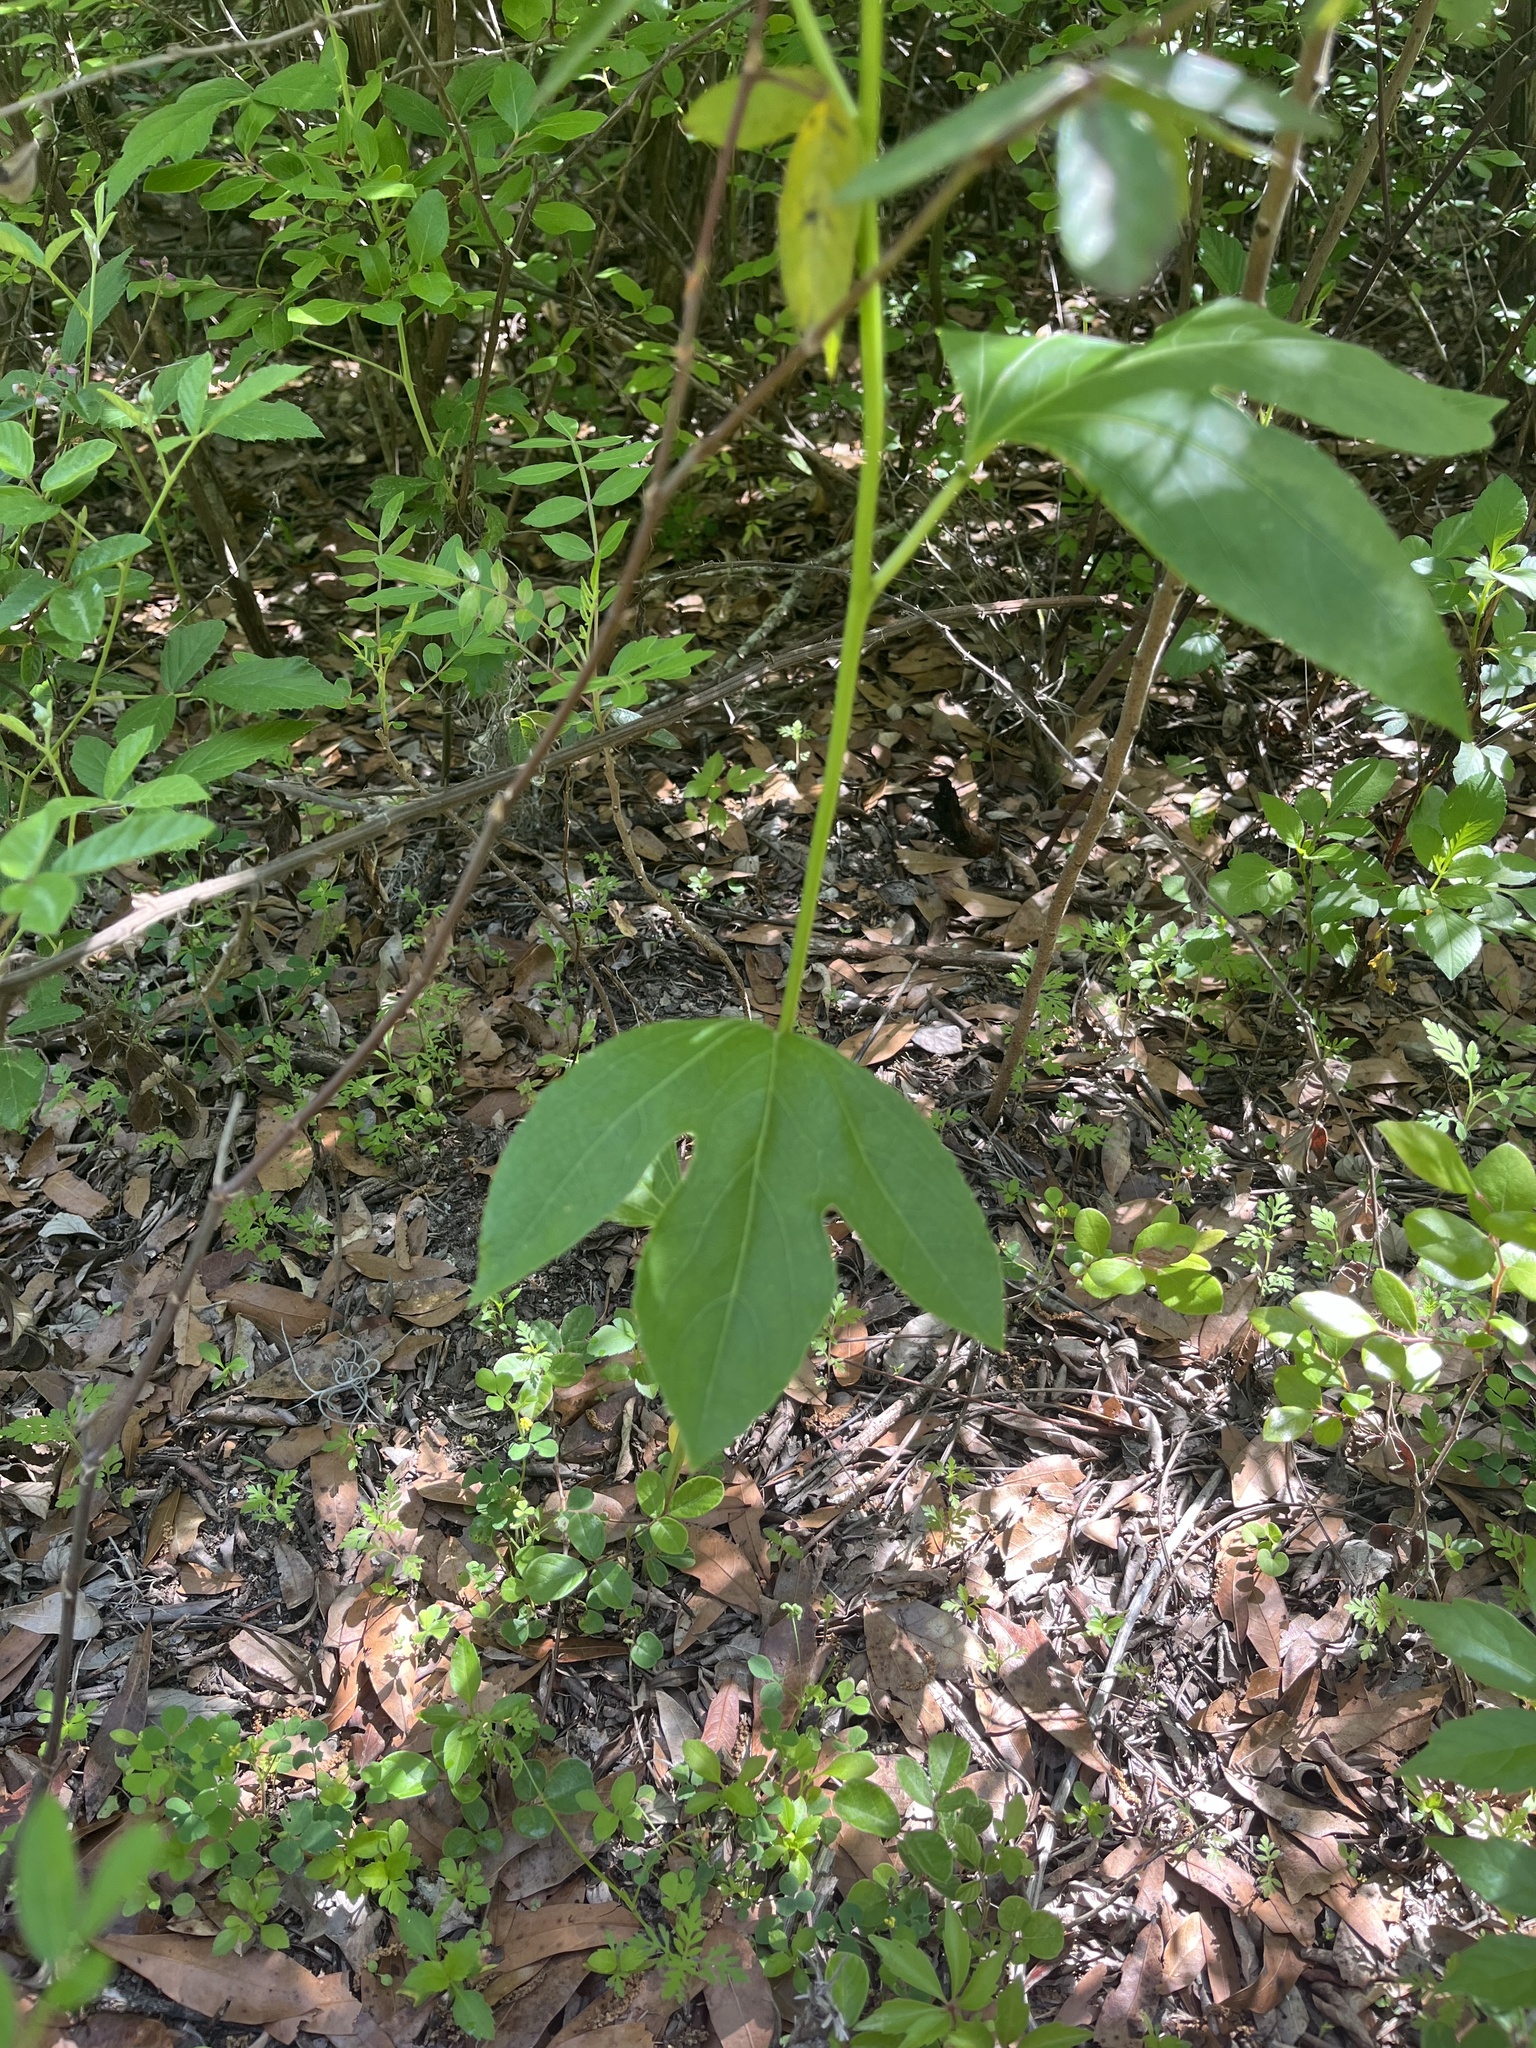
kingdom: Plantae
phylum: Tracheophyta
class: Magnoliopsida
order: Malpighiales
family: Passifloraceae
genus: Passiflora
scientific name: Passiflora incarnata
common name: Apricot-vine
